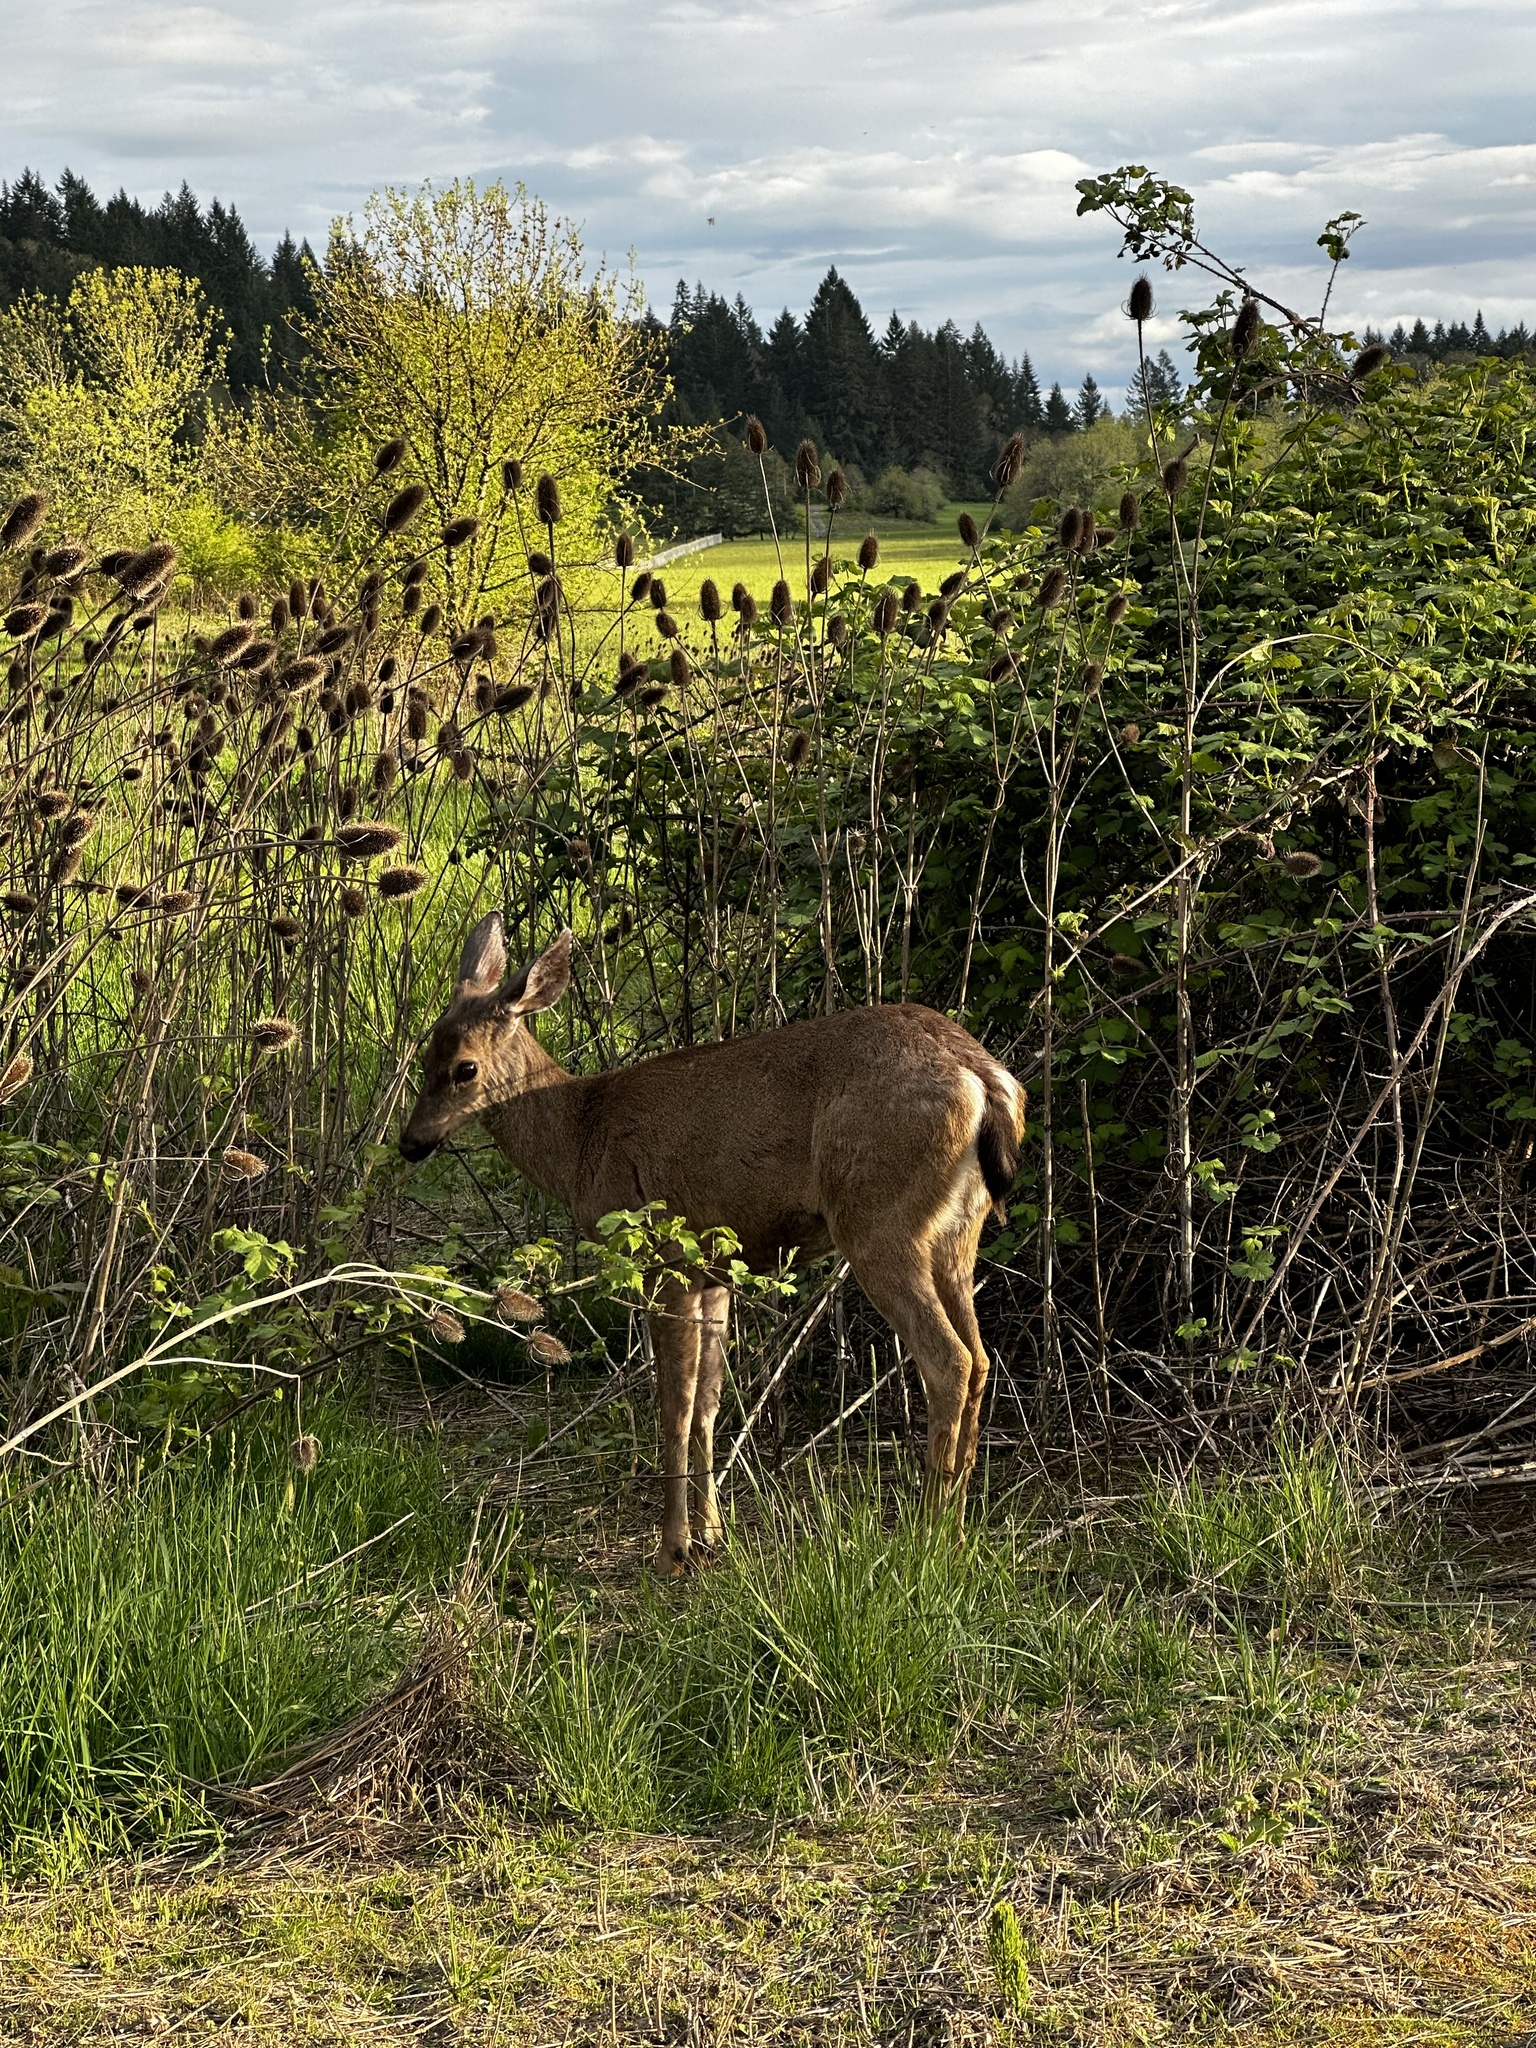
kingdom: Animalia
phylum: Chordata
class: Mammalia
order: Artiodactyla
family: Cervidae
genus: Odocoileus
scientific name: Odocoileus hemionus
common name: Mule deer
